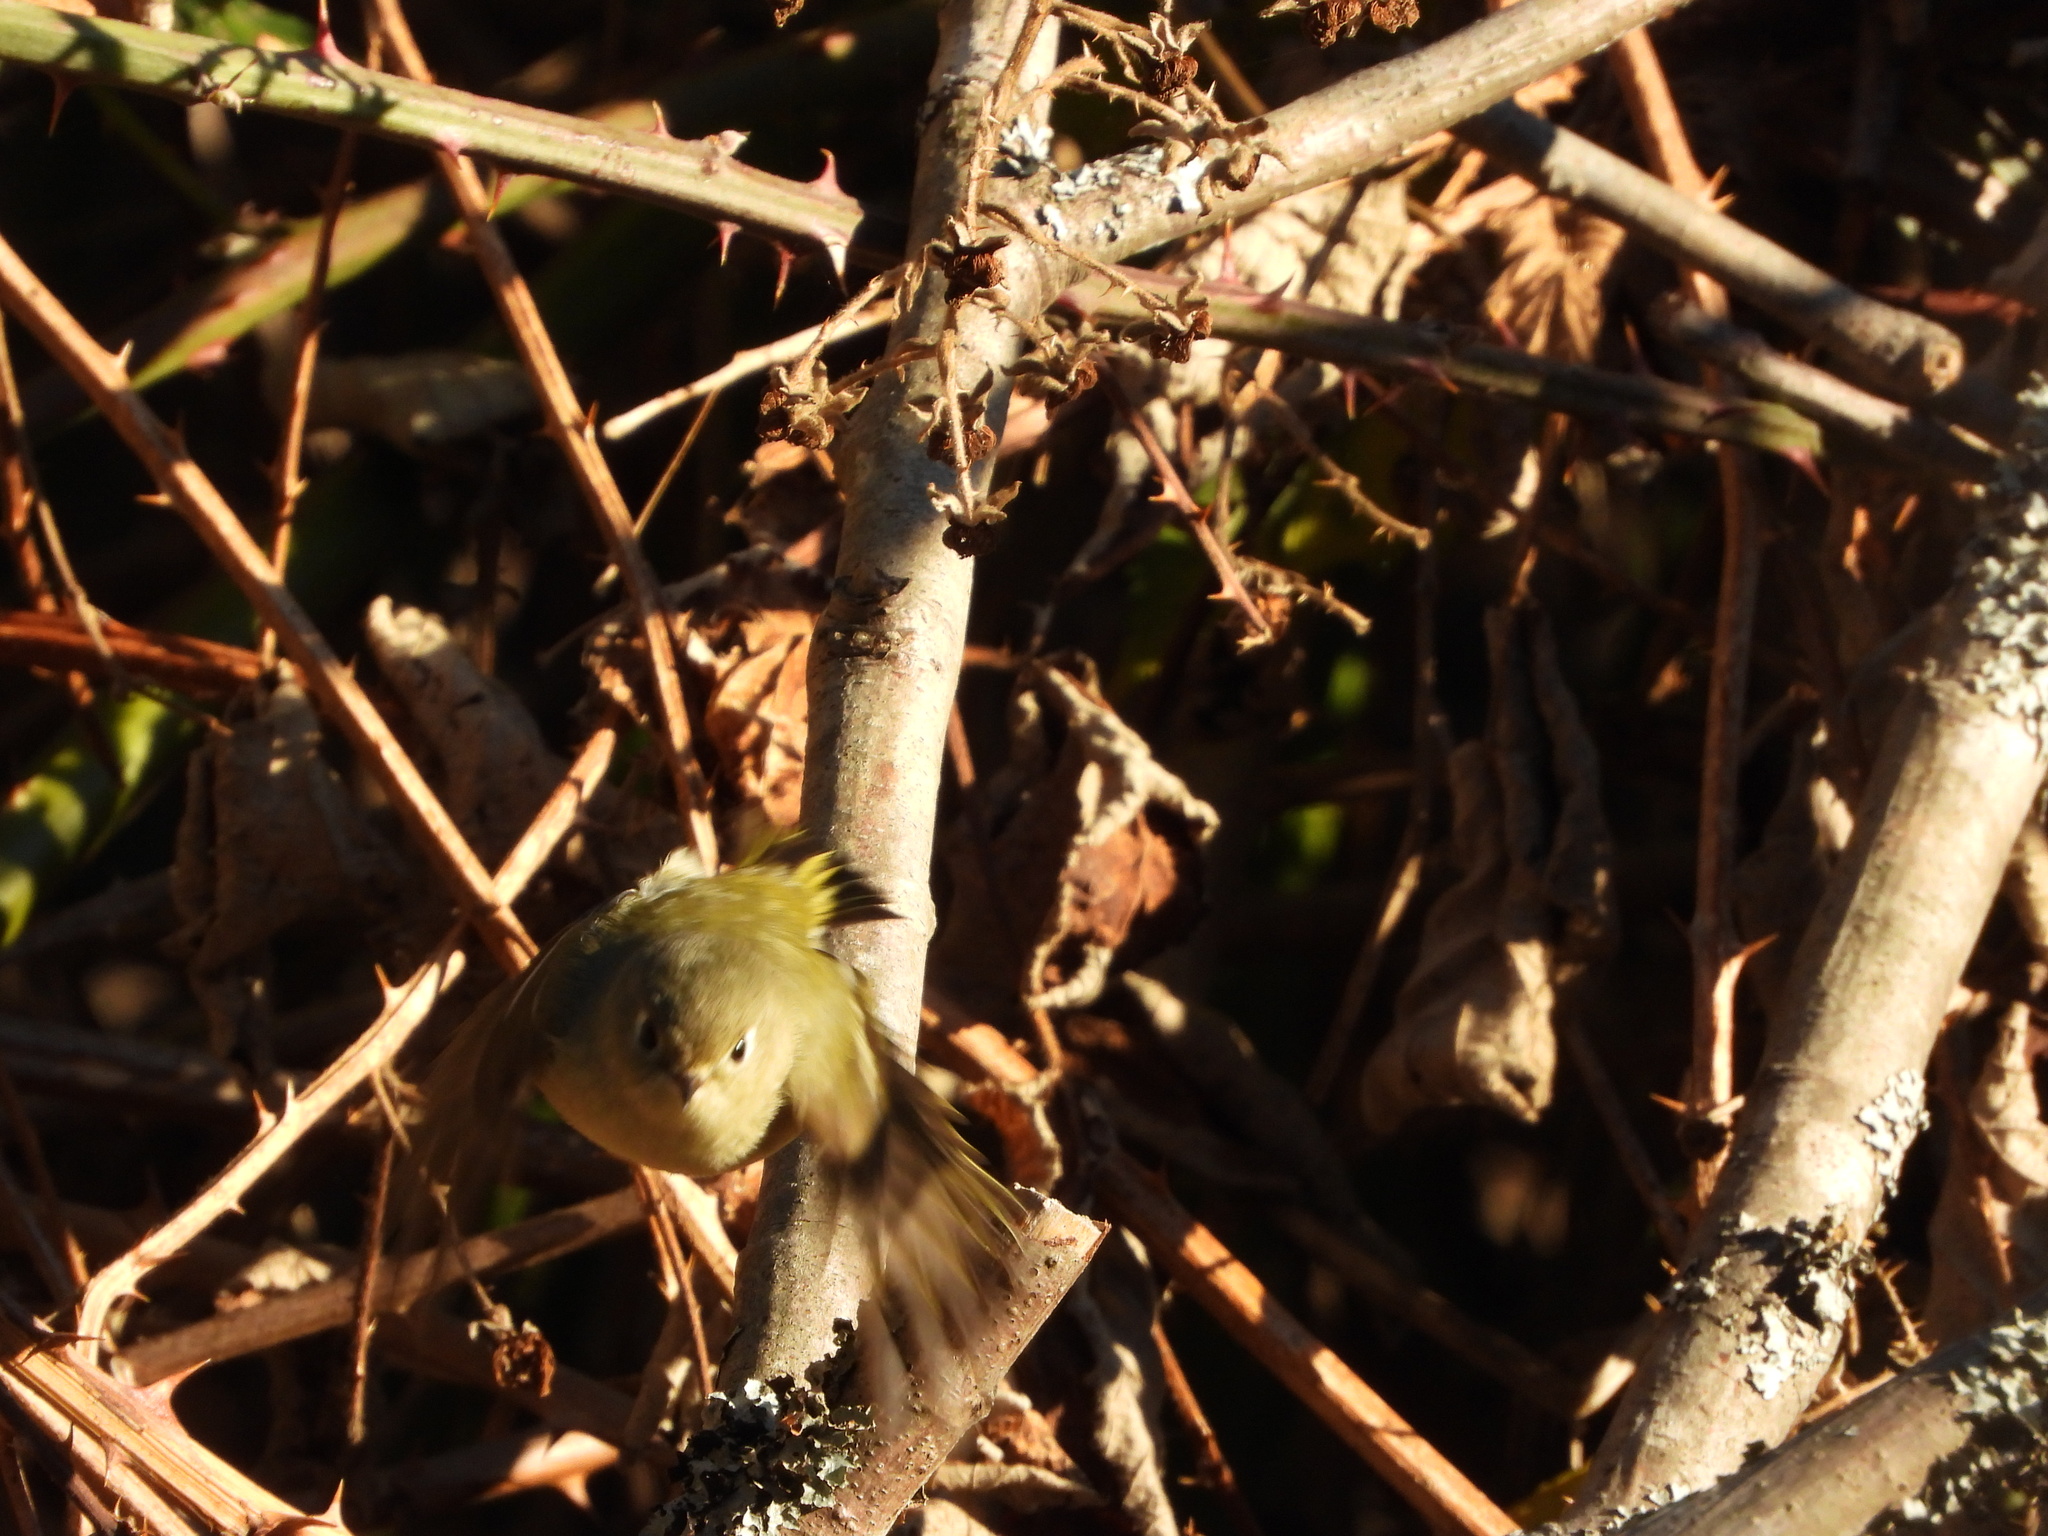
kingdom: Animalia
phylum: Chordata
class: Aves
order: Passeriformes
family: Regulidae
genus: Regulus
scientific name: Regulus calendula
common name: Ruby-crowned kinglet
